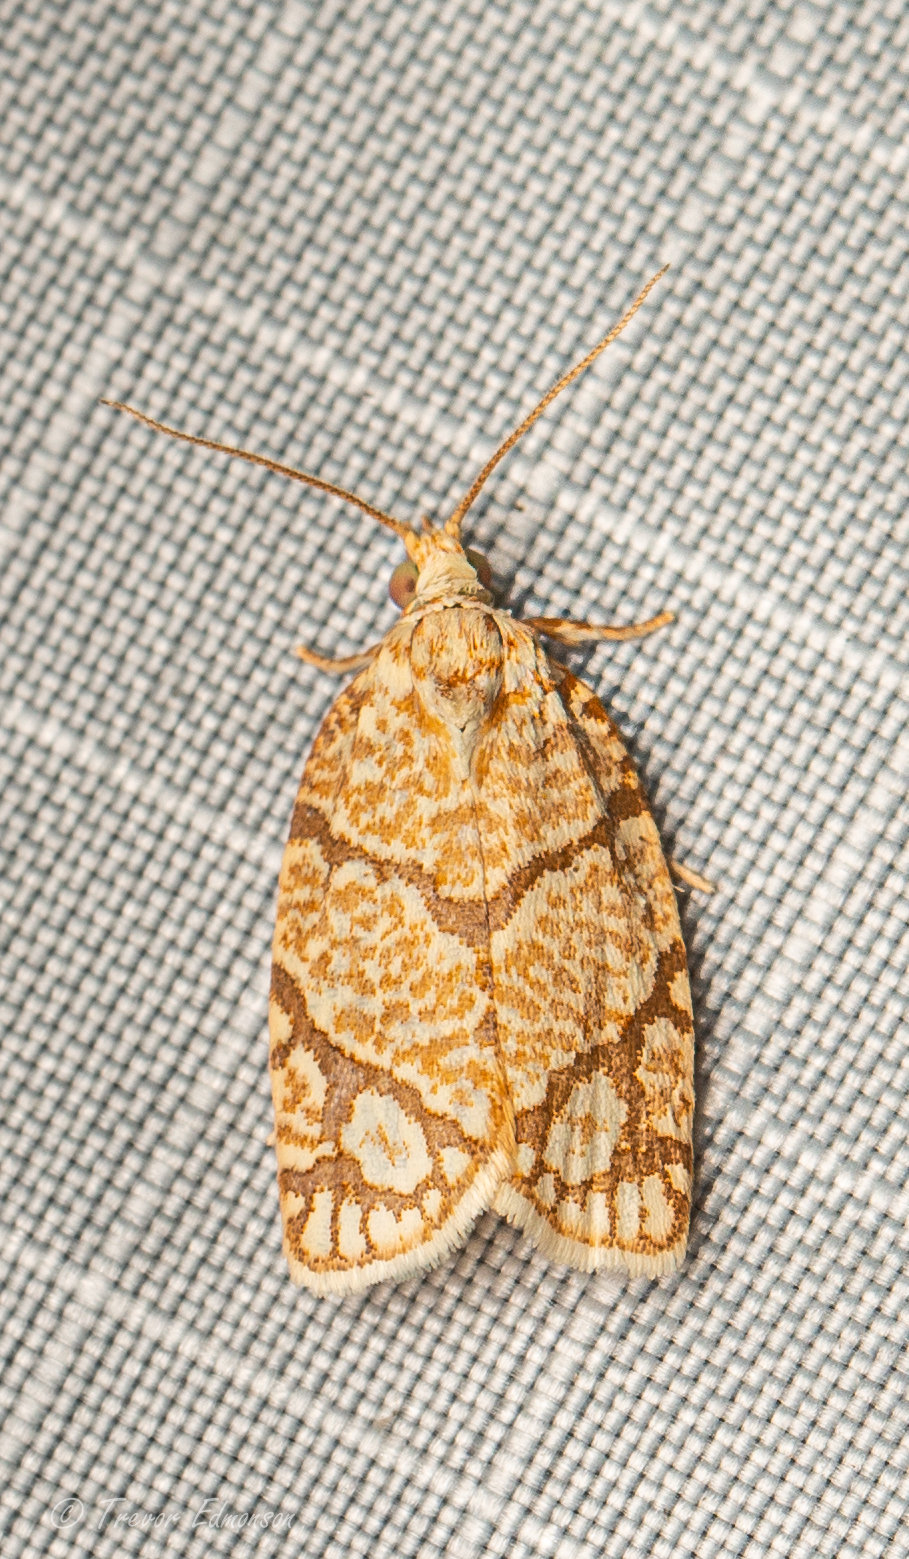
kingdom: Animalia
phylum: Arthropoda
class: Insecta
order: Lepidoptera
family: Tortricidae
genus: Argyrotaenia
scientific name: Argyrotaenia quercifoliana
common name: Yellow-winged oak leafroller moth
